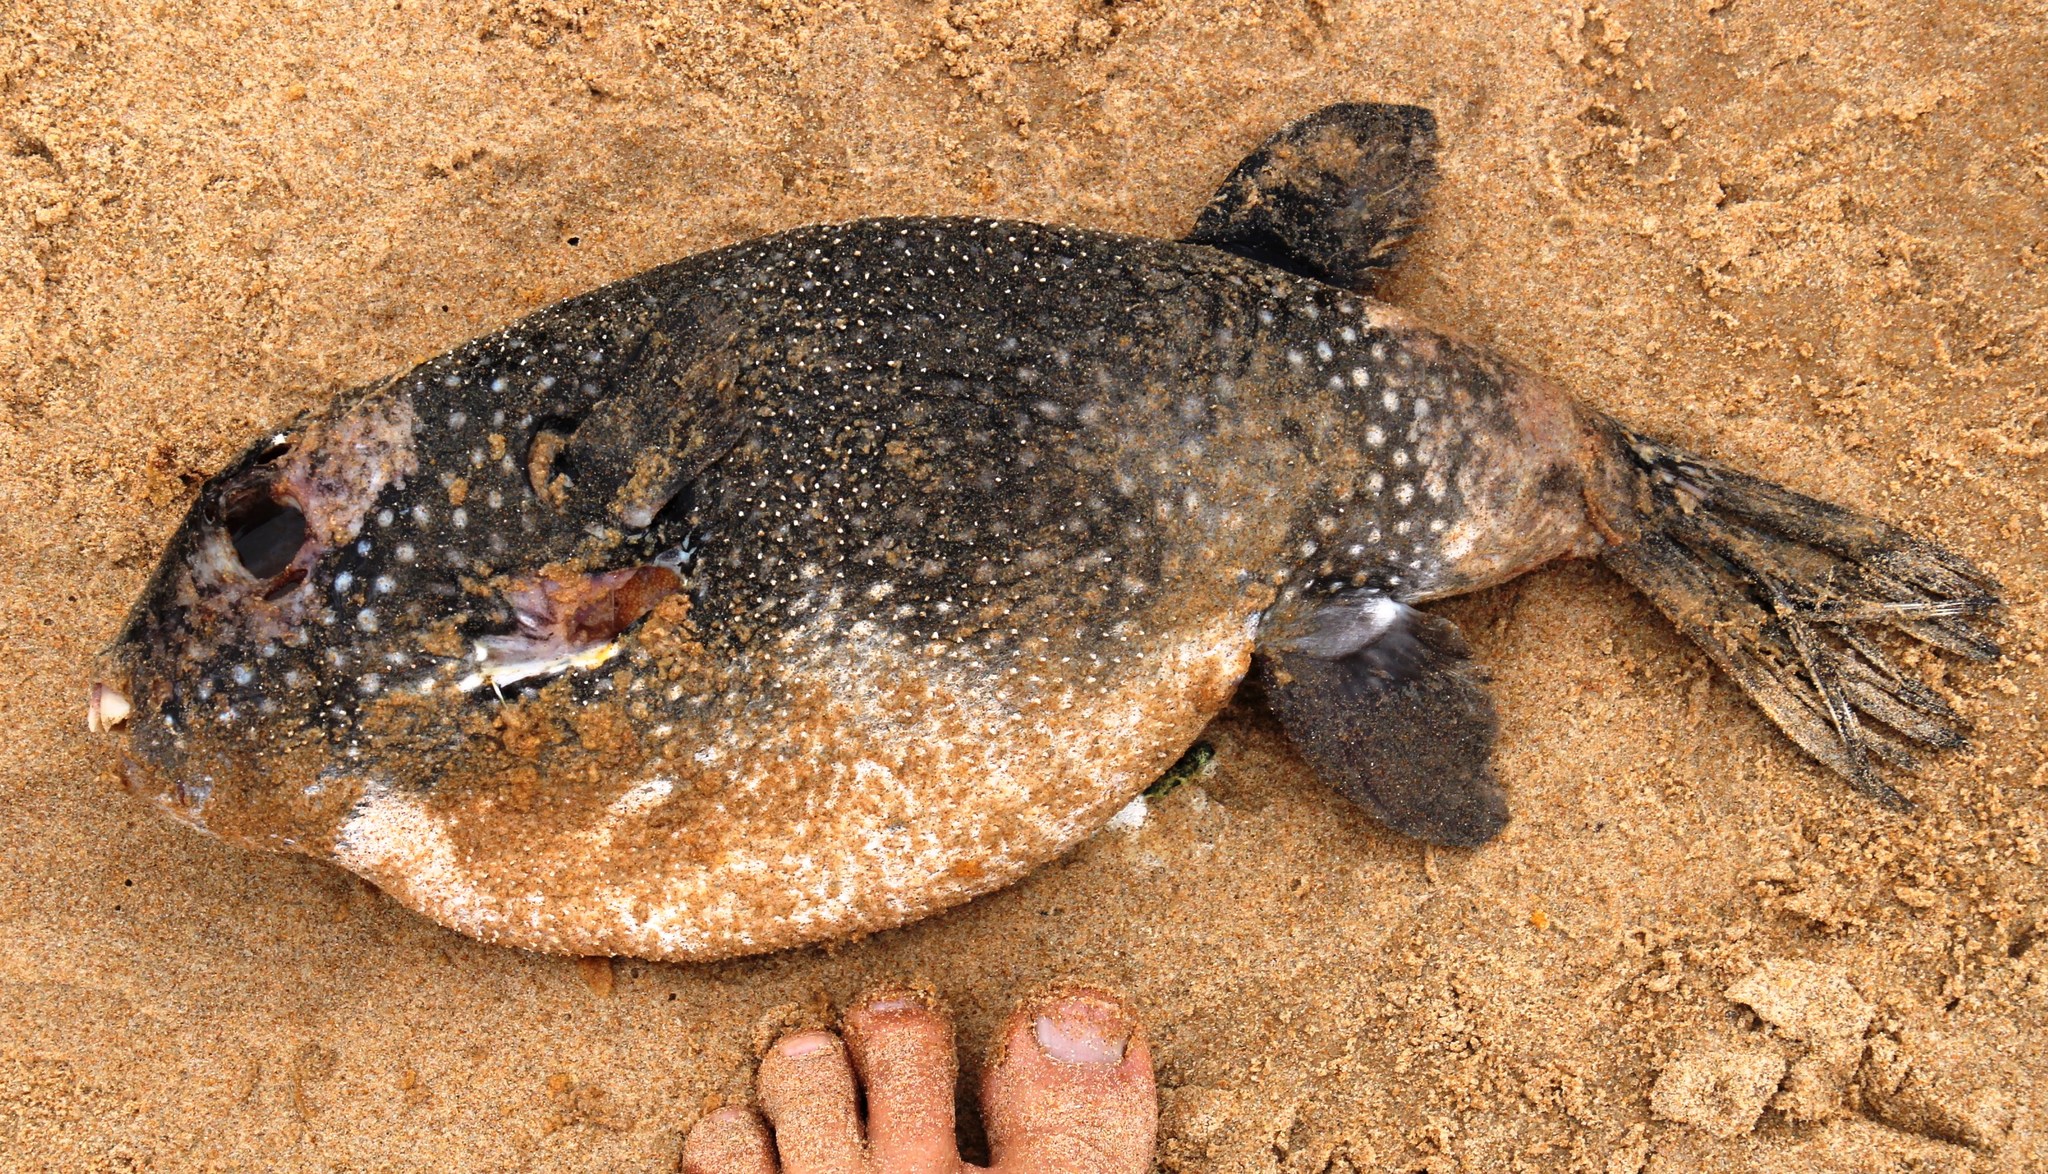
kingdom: Animalia
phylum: Chordata
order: Tetraodontiformes
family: Tetraodontidae
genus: Arothron
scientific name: Arothron firmamentum
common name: Starry toado
